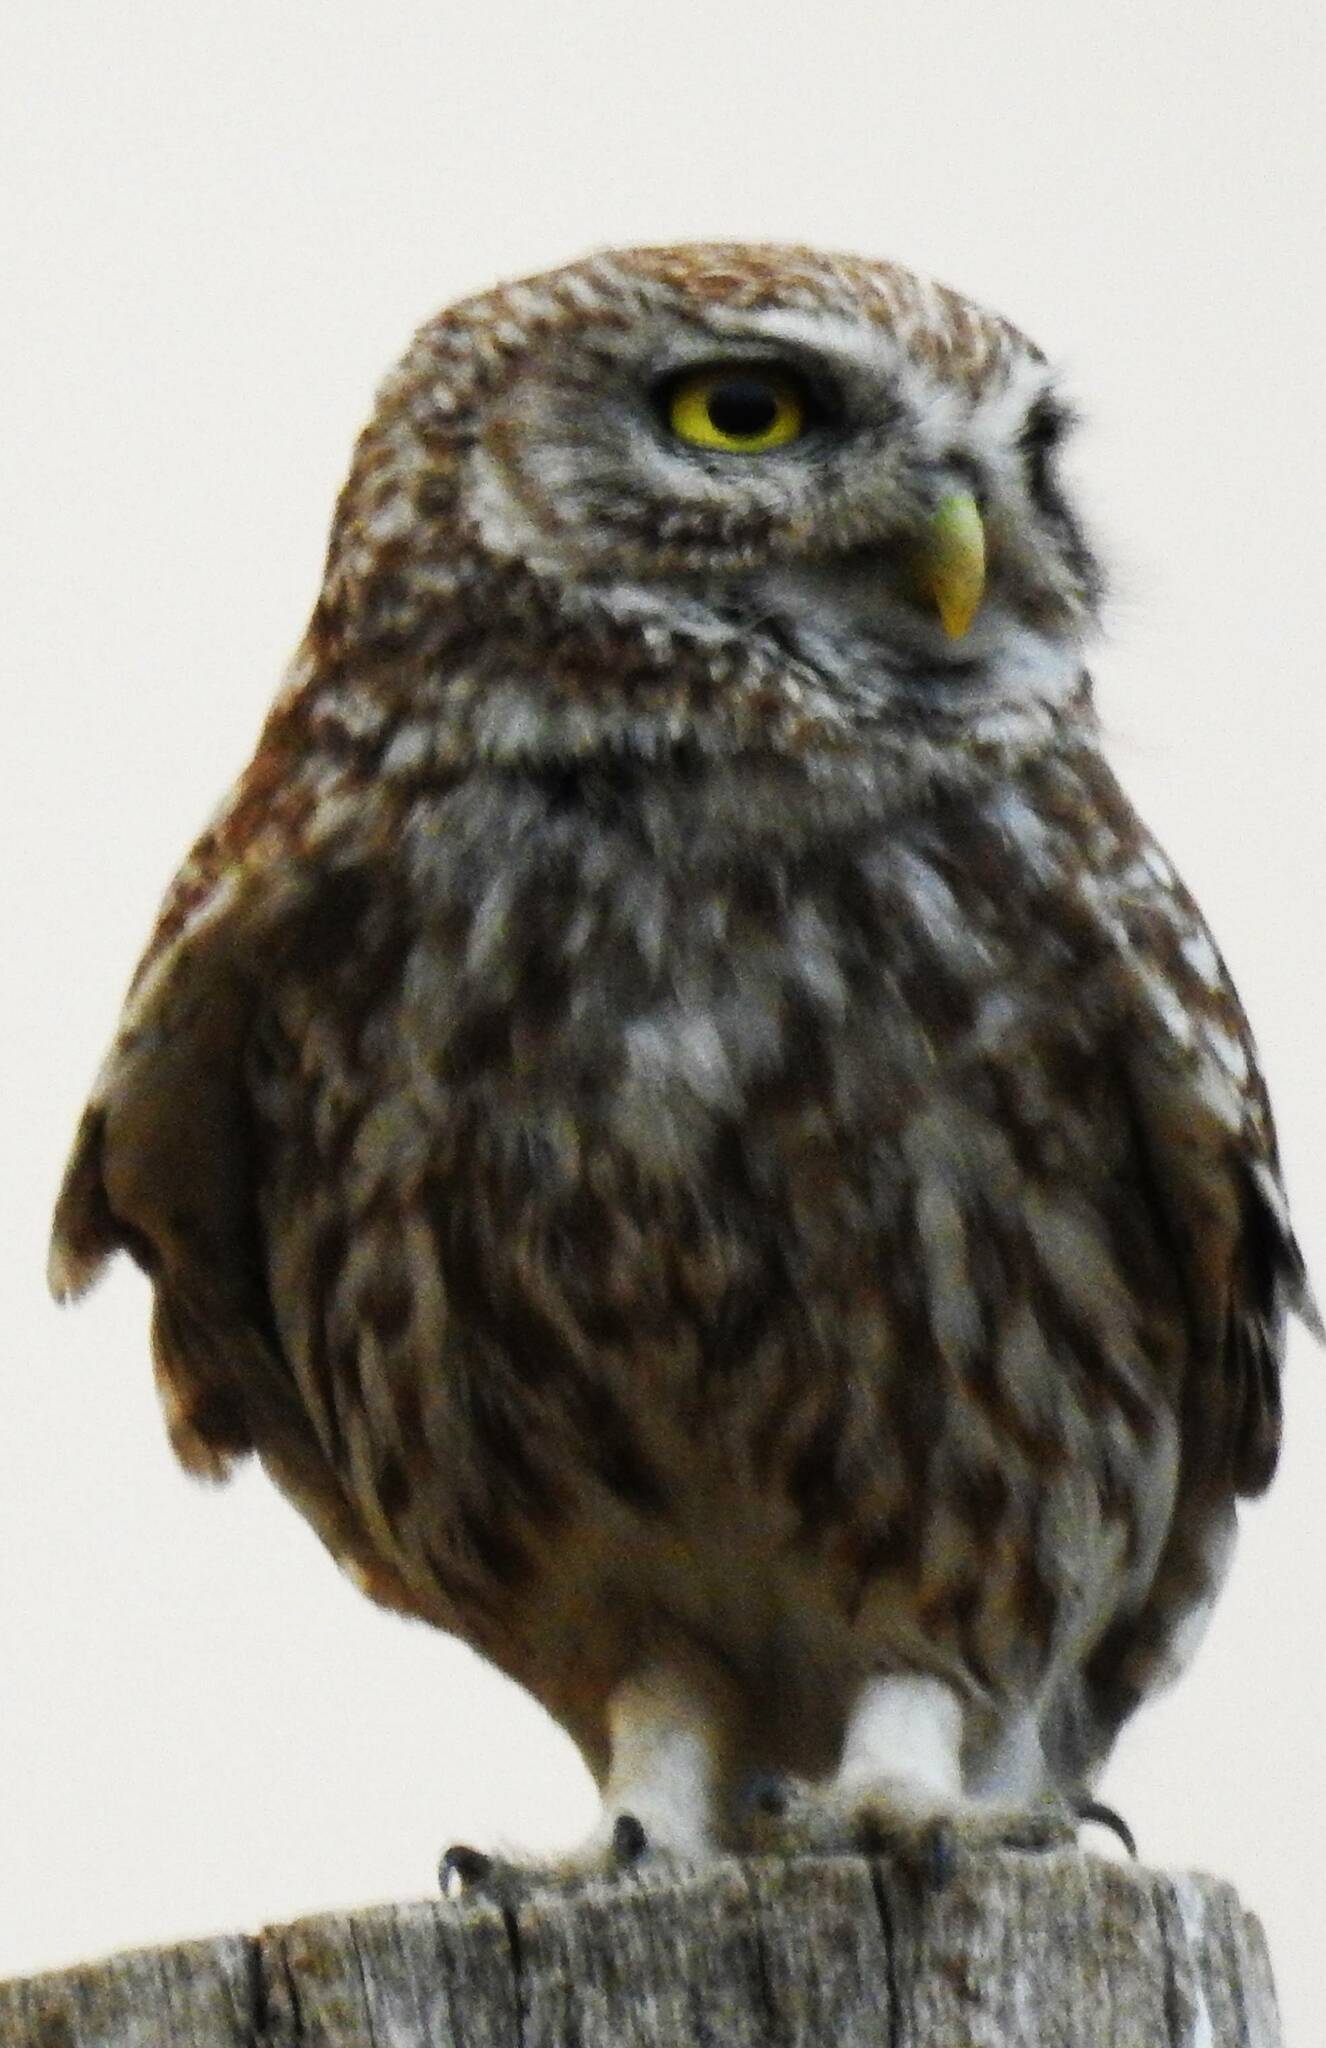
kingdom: Animalia
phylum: Chordata
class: Aves
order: Strigiformes
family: Strigidae
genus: Athene
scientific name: Athene noctua
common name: Little owl
